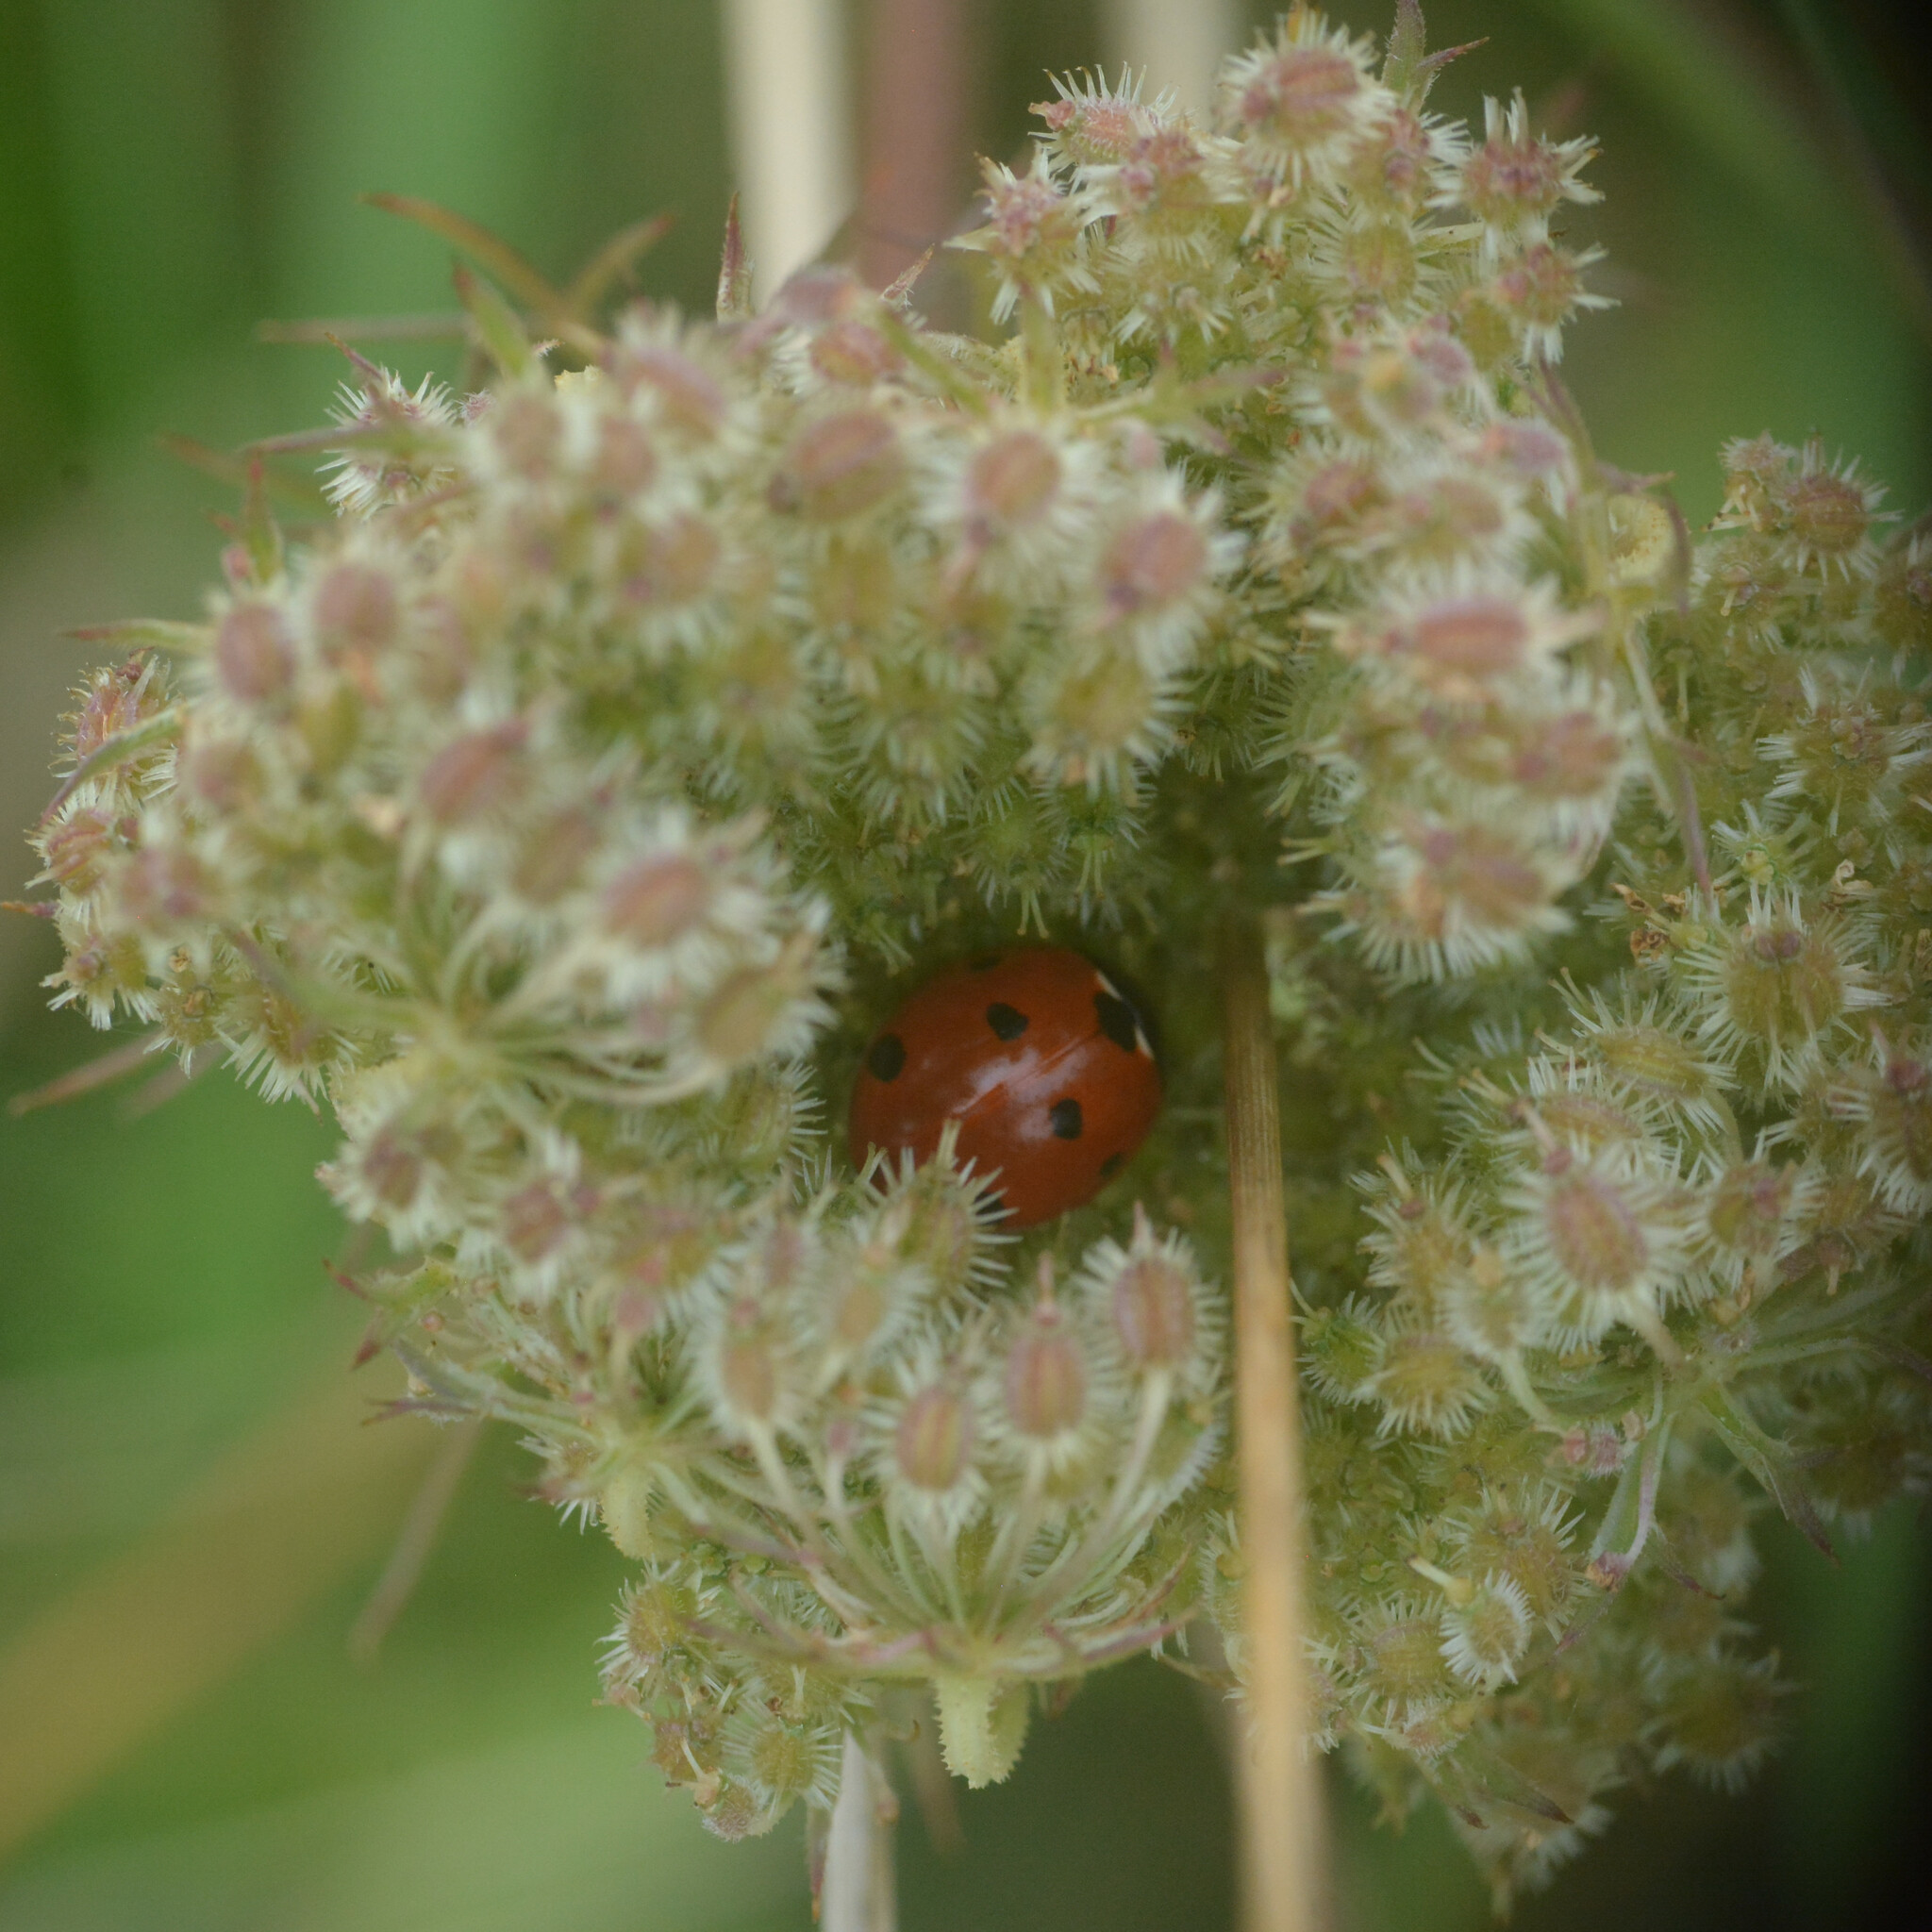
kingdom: Animalia
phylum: Arthropoda
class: Insecta
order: Coleoptera
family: Coccinellidae
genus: Coccinella
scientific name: Coccinella septempunctata
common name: Sevenspotted lady beetle
